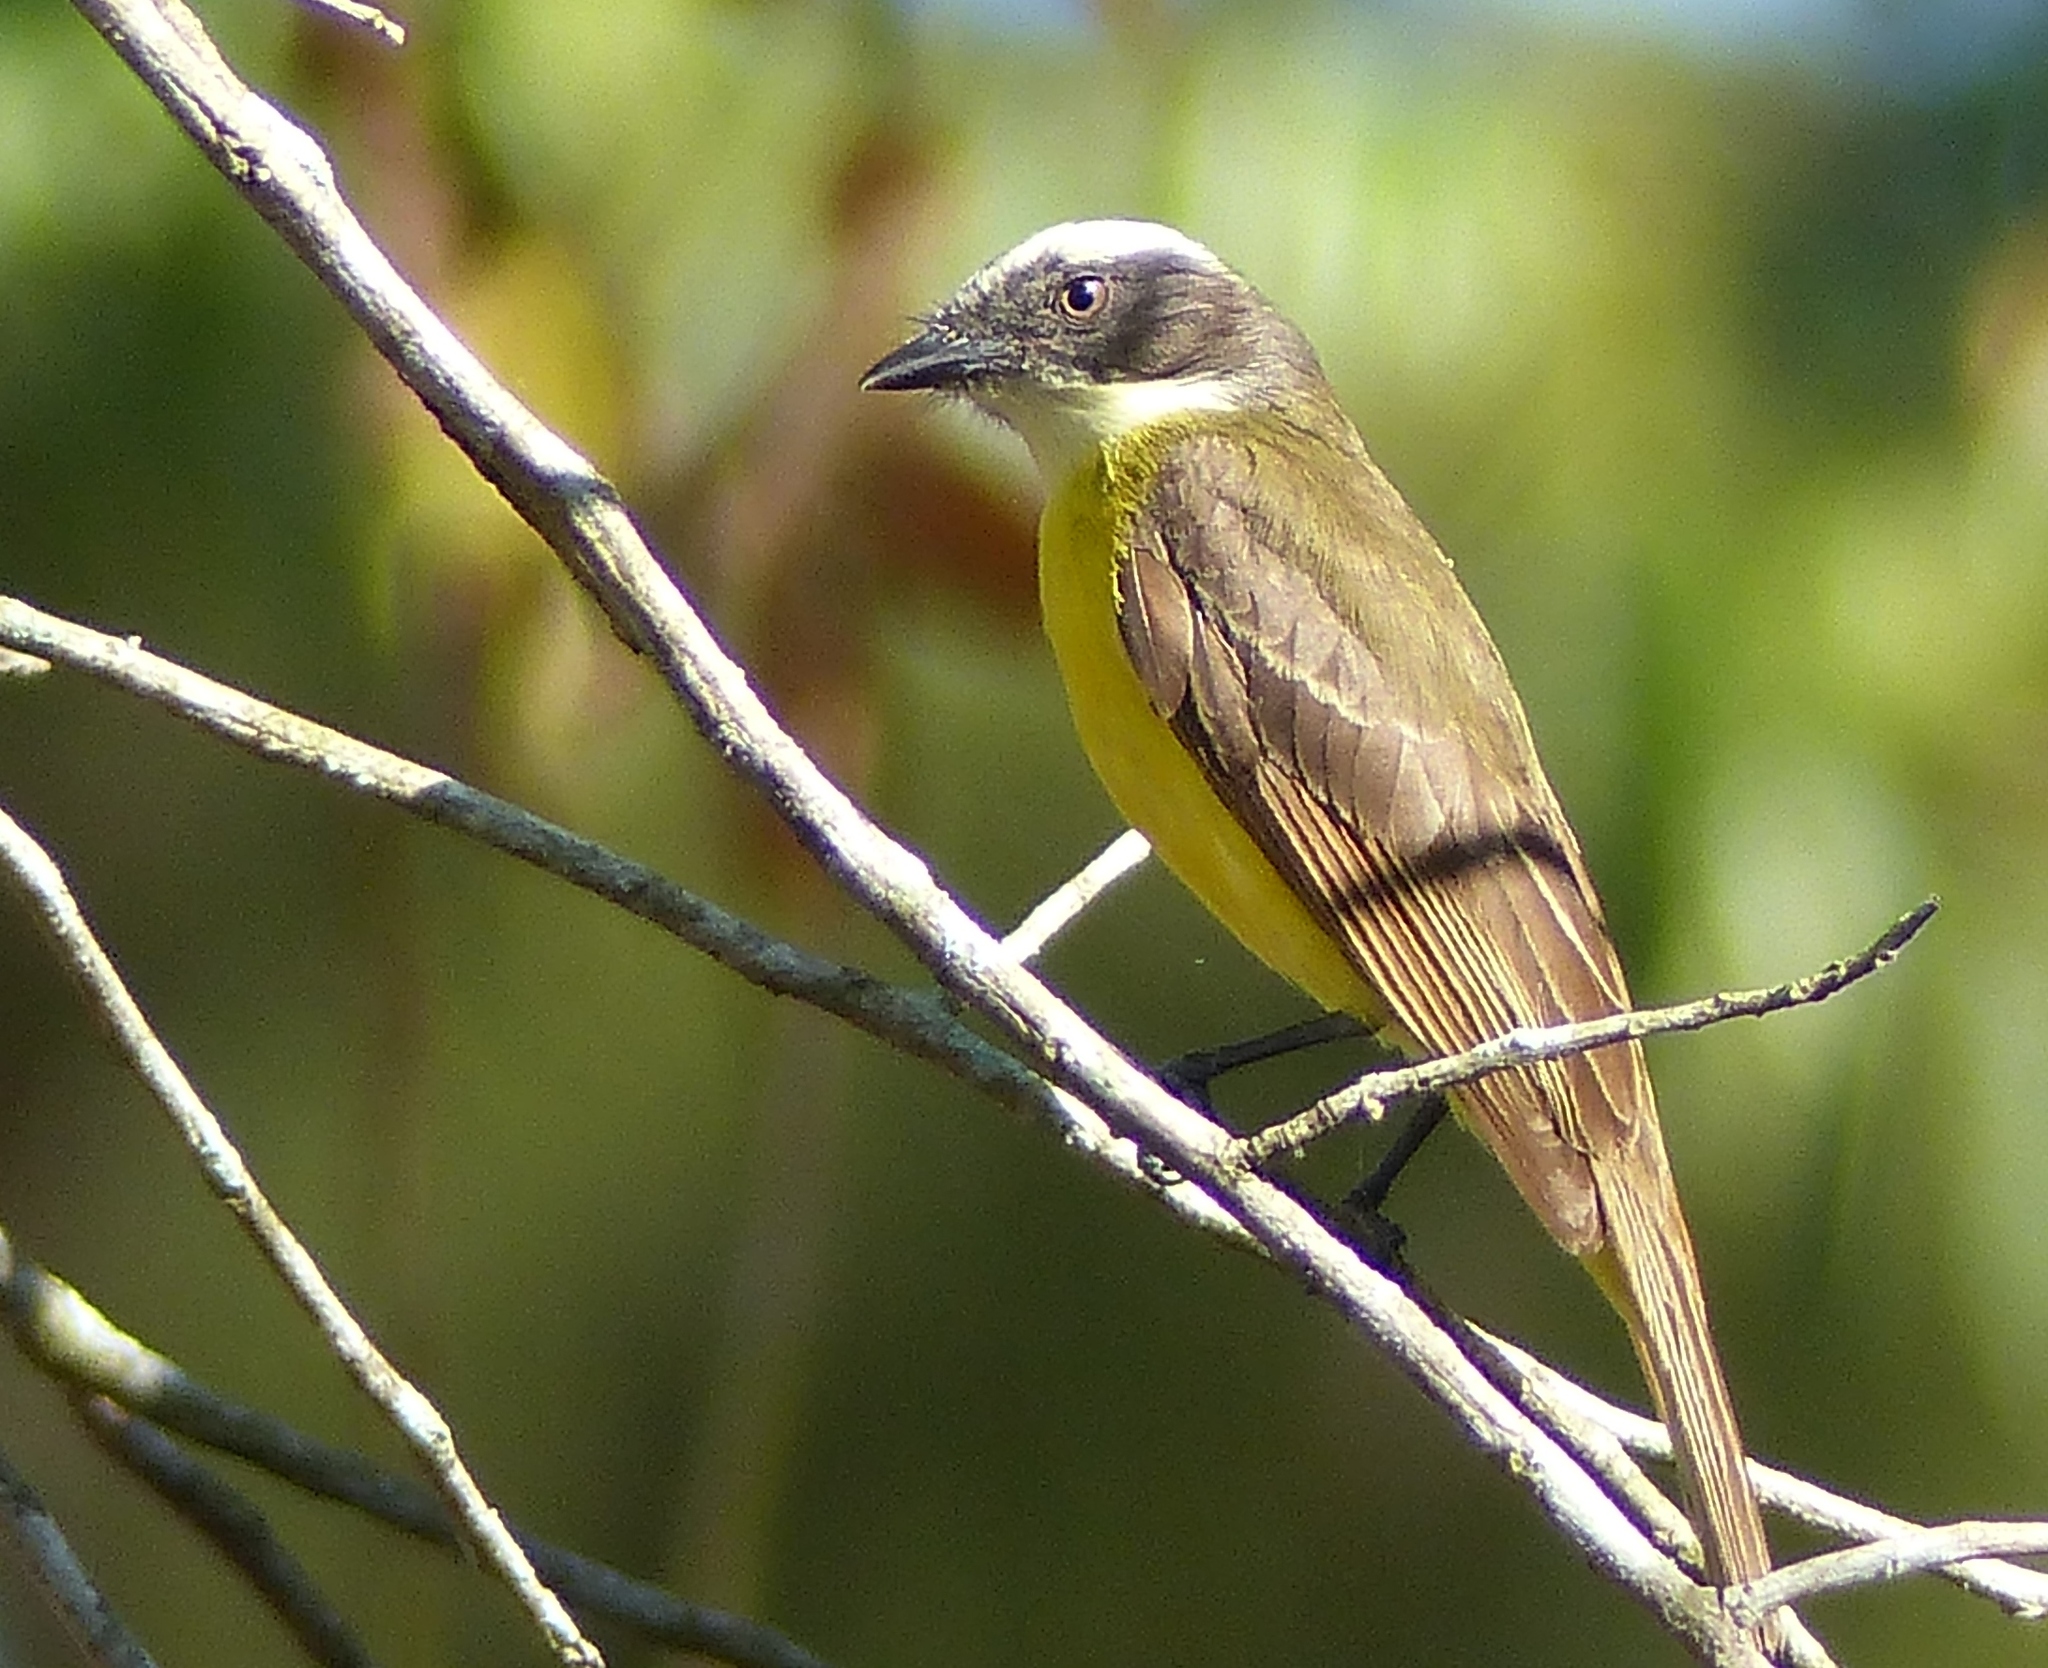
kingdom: Animalia
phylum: Chordata
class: Aves
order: Passeriformes
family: Tyrannidae
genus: Myiozetetes
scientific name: Myiozetetes similis
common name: Social flycatcher
